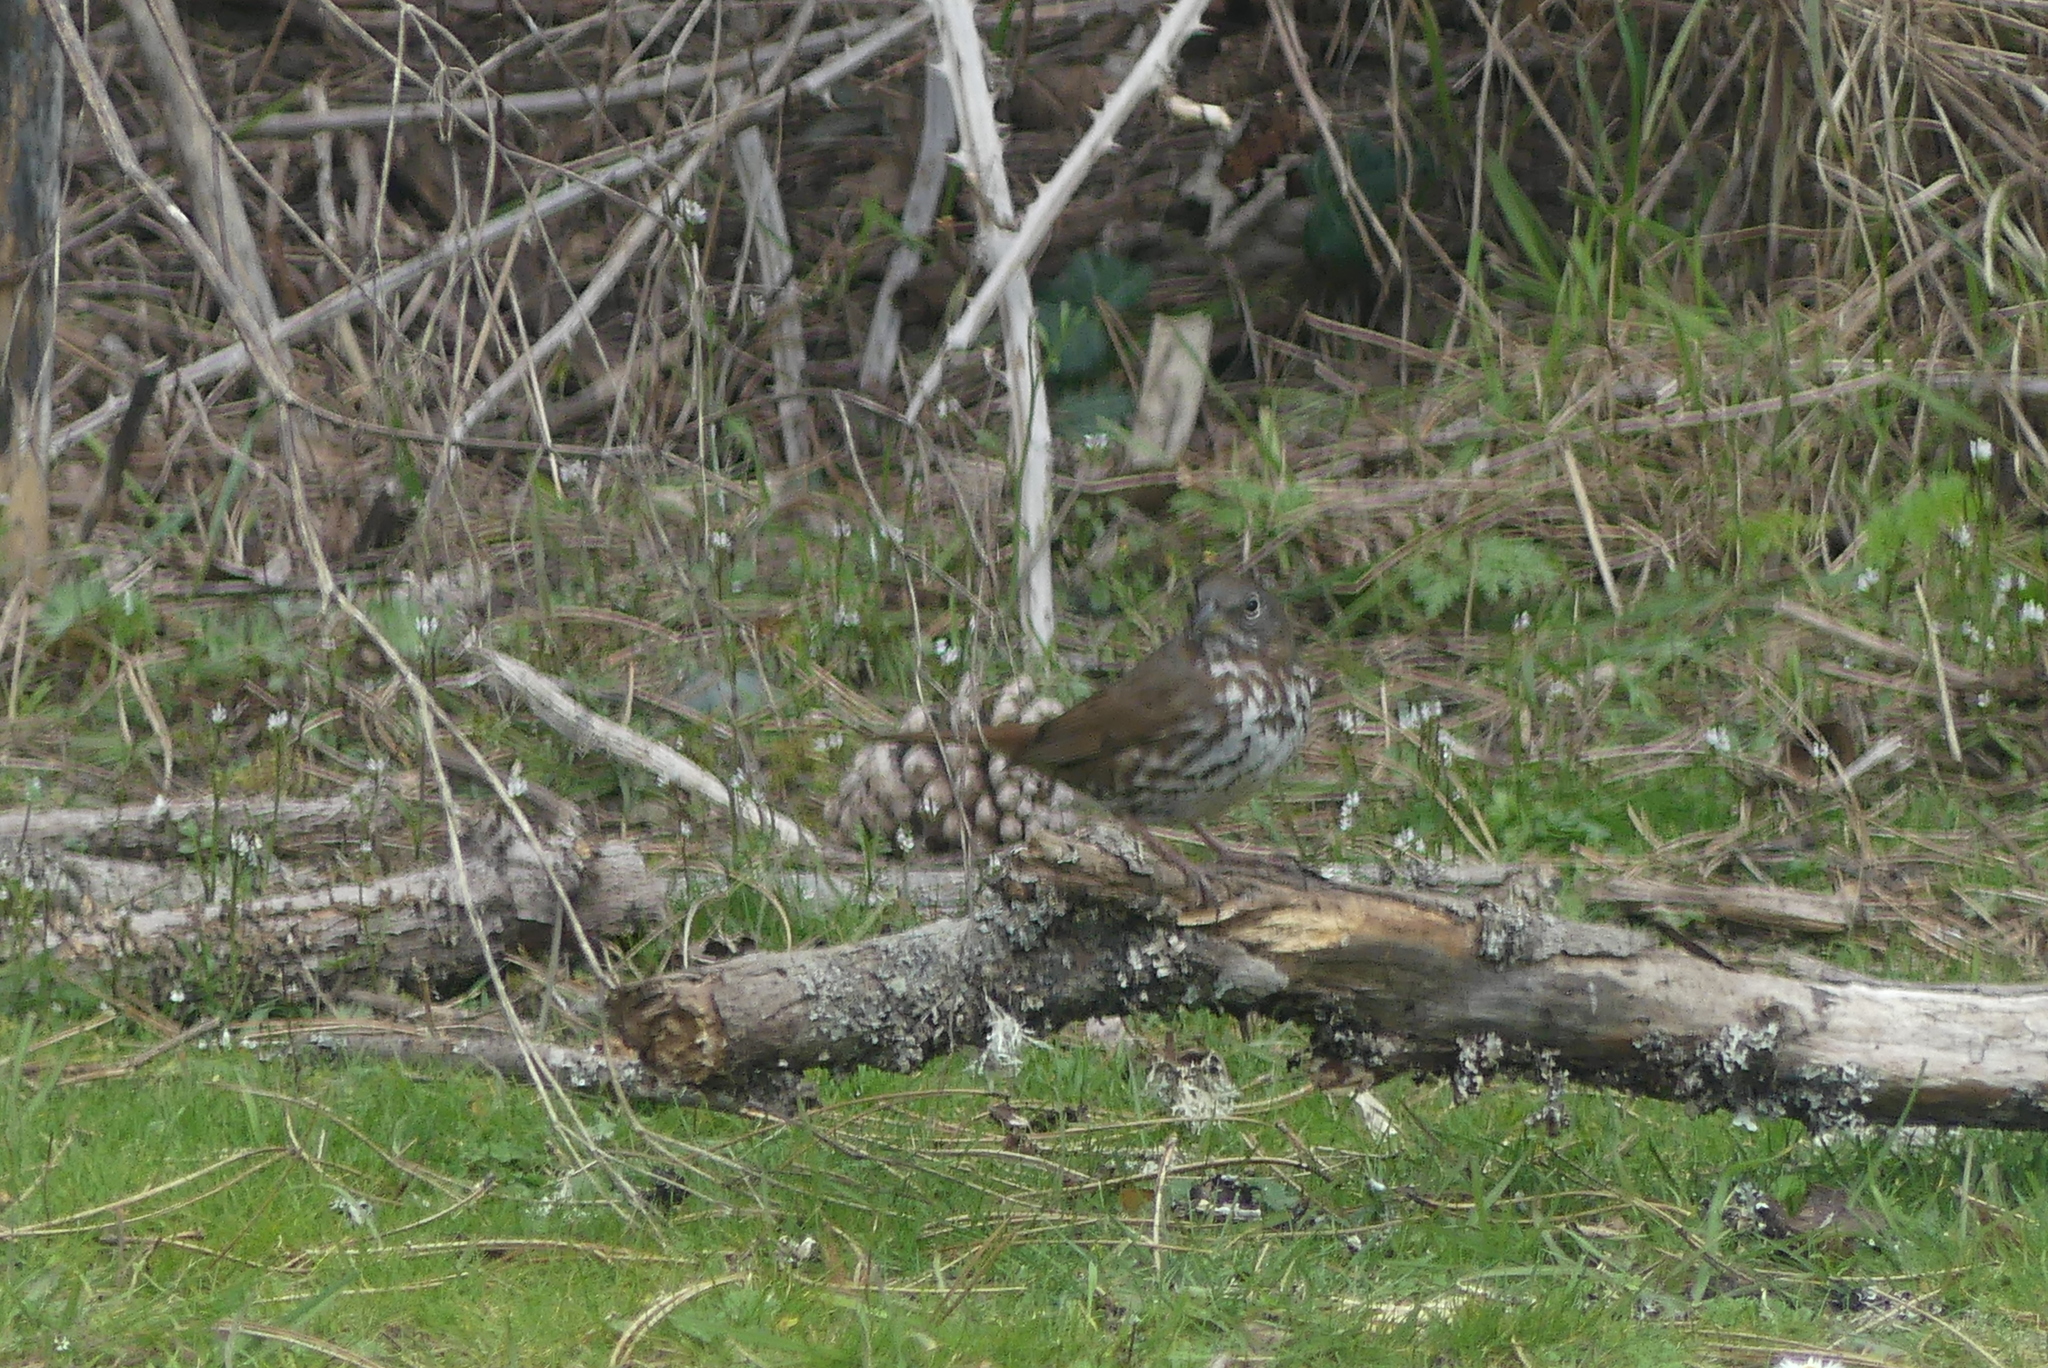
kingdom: Animalia
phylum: Chordata
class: Aves
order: Passeriformes
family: Passerellidae
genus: Passerella
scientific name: Passerella iliaca
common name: Fox sparrow
